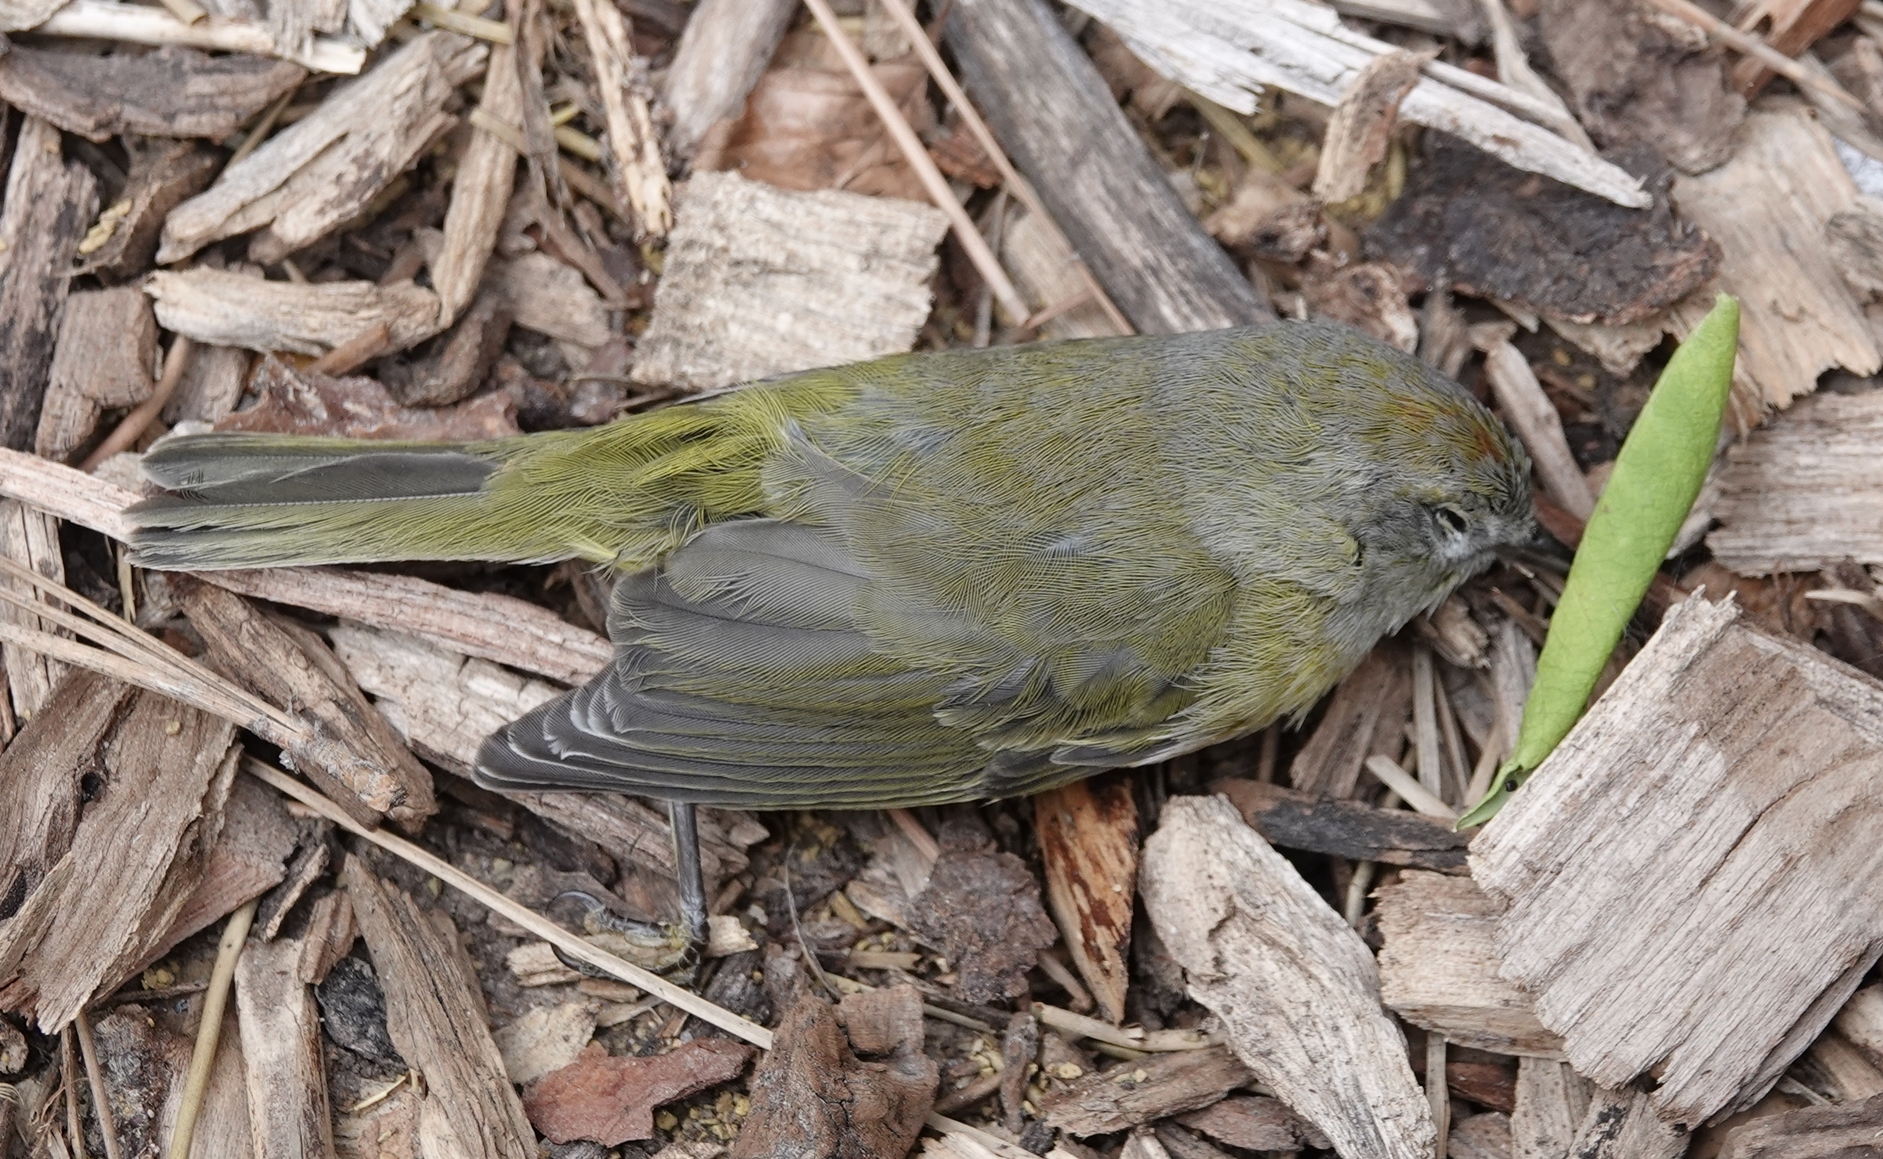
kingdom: Animalia
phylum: Chordata
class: Aves
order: Passeriformes
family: Parulidae
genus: Leiothlypis
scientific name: Leiothlypis celata
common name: Orange-crowned warbler
